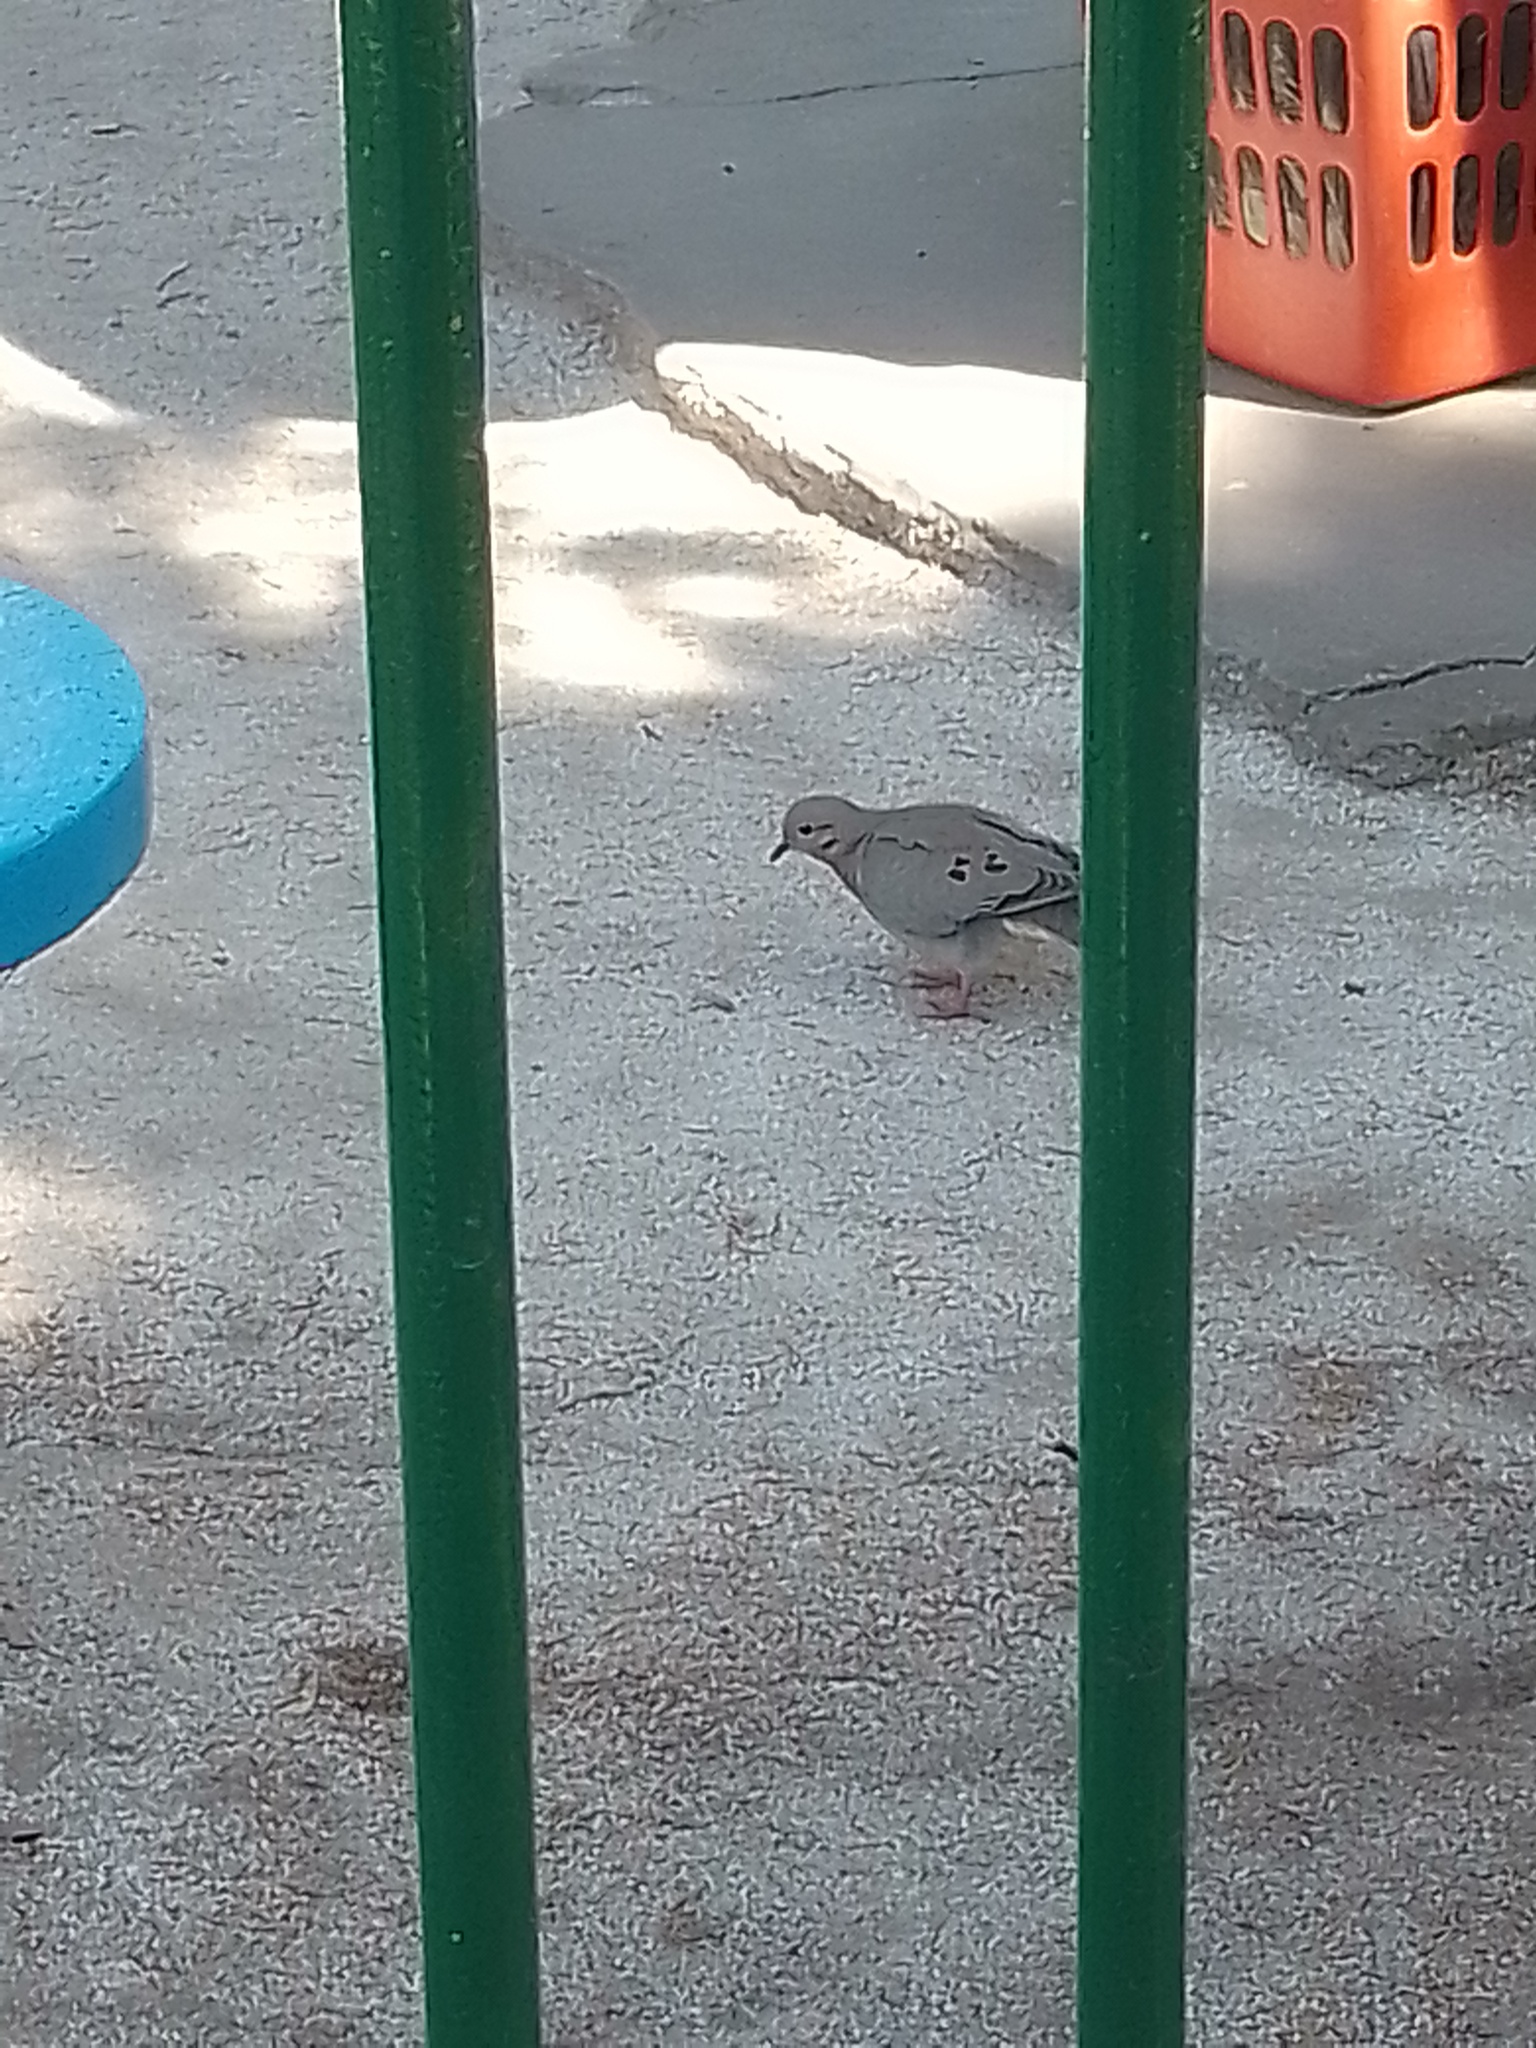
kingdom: Animalia
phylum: Chordata
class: Aves
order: Columbiformes
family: Columbidae
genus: Zenaida
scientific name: Zenaida auriculata
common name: Eared dove
